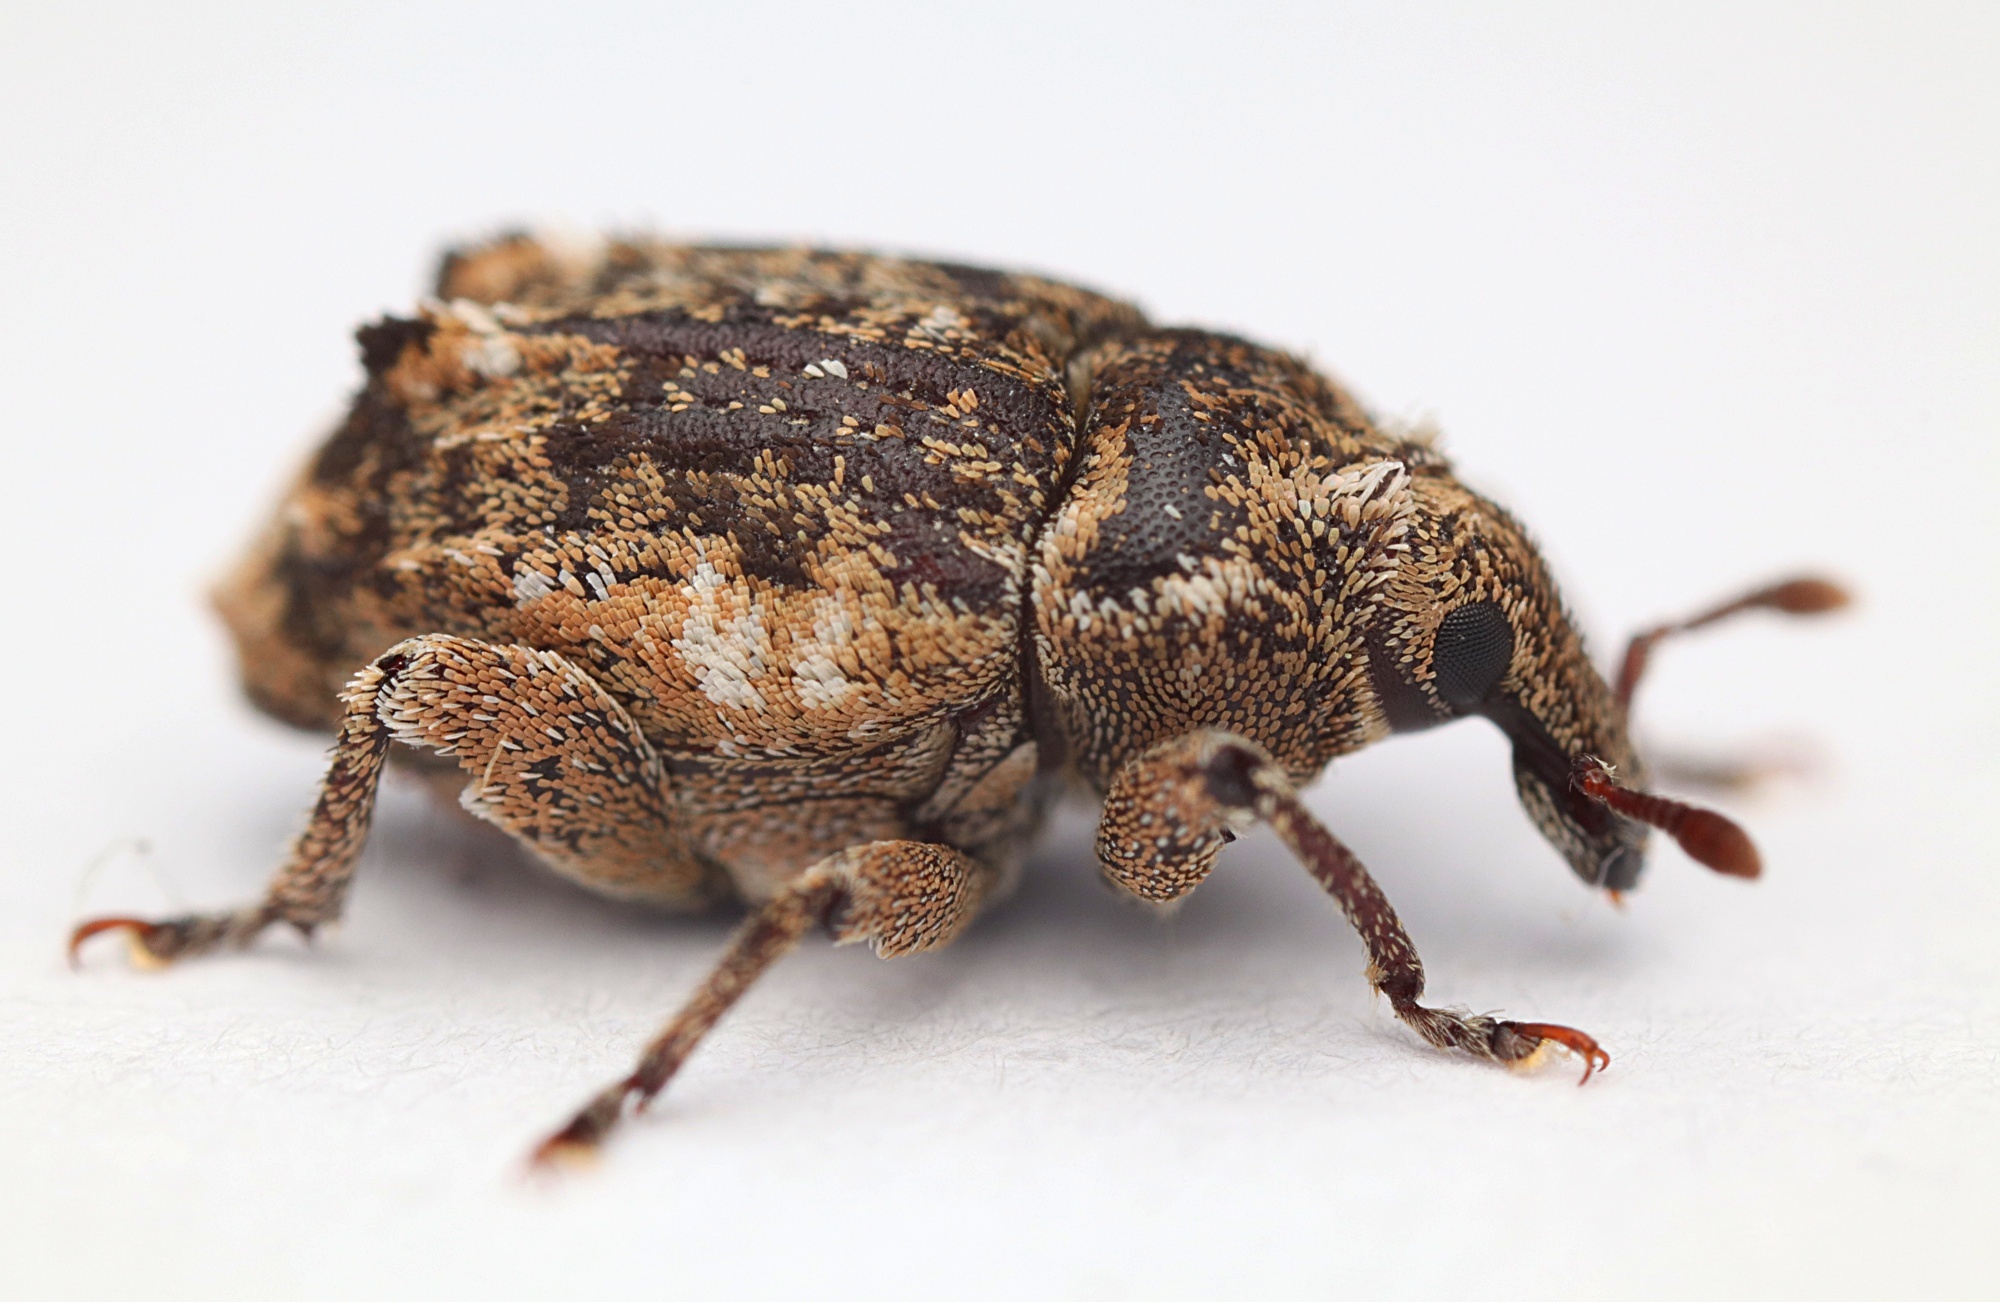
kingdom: Animalia
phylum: Arthropoda
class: Insecta
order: Coleoptera
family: Curculionidae
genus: Psepholax
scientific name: Psepholax femoratus
